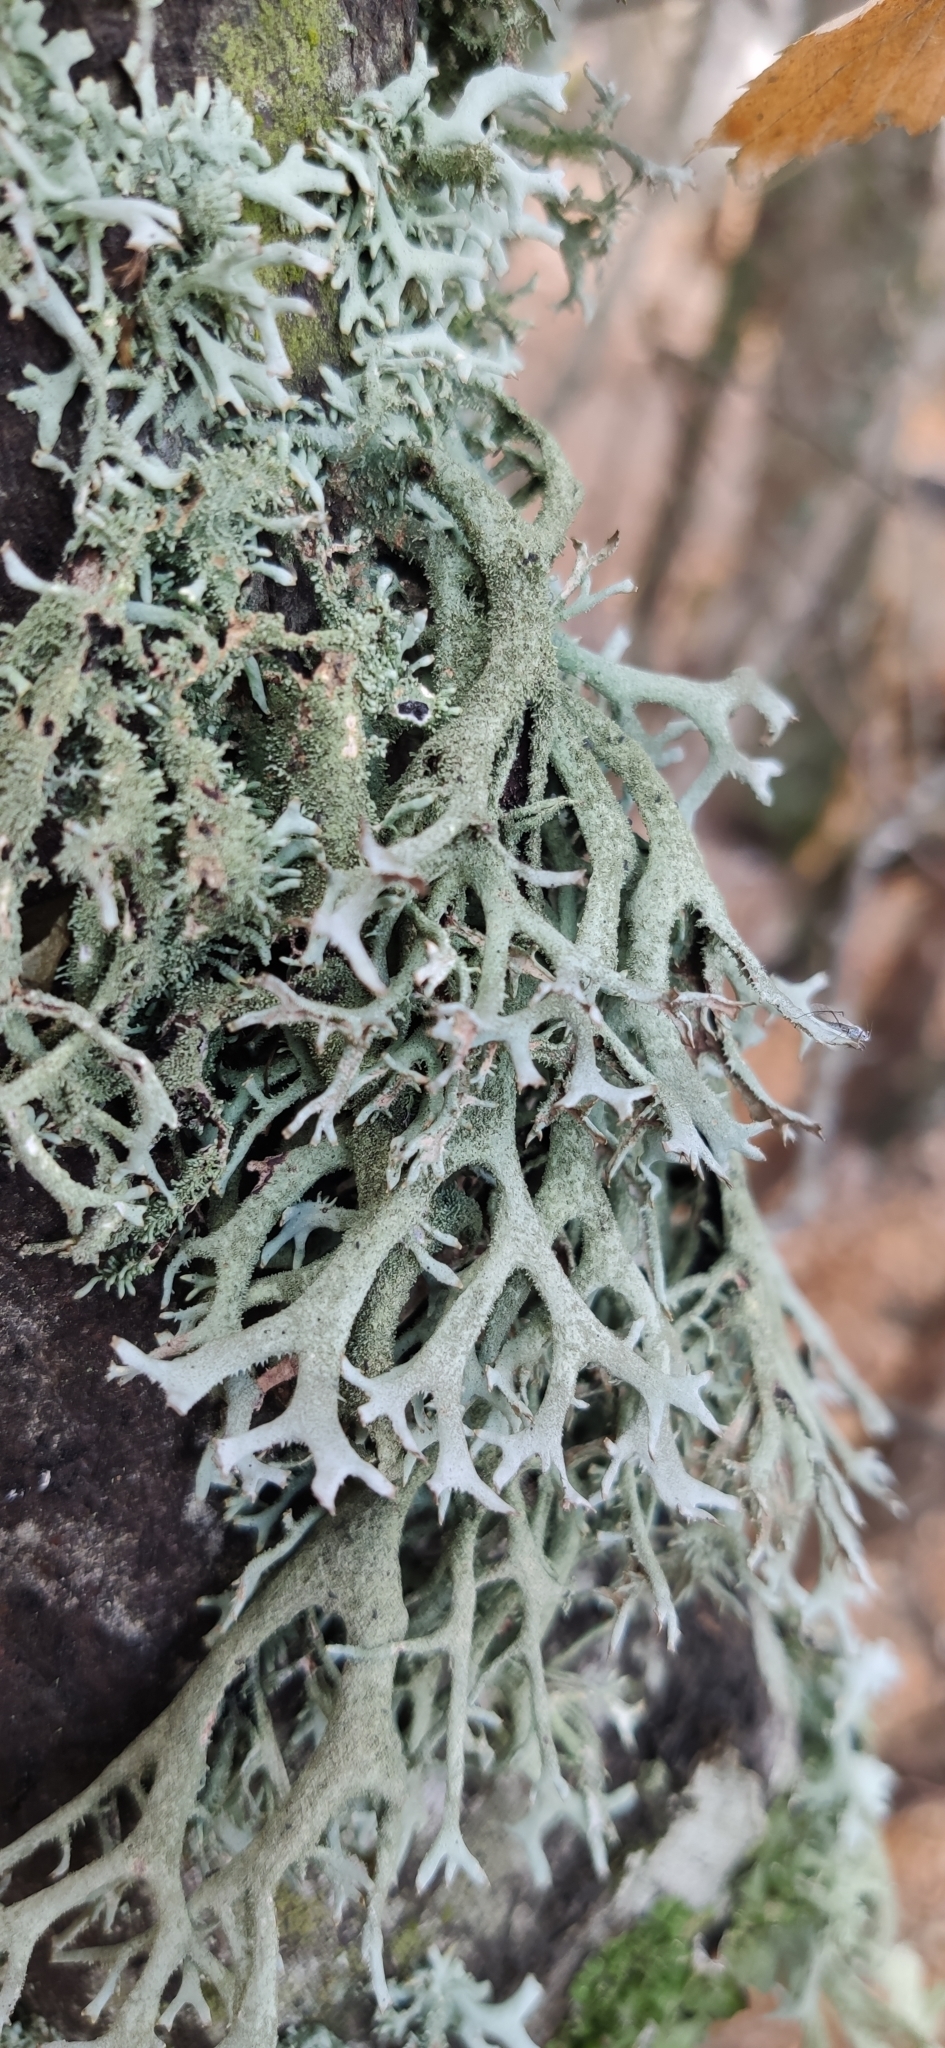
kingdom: Fungi
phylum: Ascomycota
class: Lecanoromycetes
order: Lecanorales
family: Parmeliaceae
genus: Pseudevernia
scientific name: Pseudevernia furfuracea
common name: Tree moss
